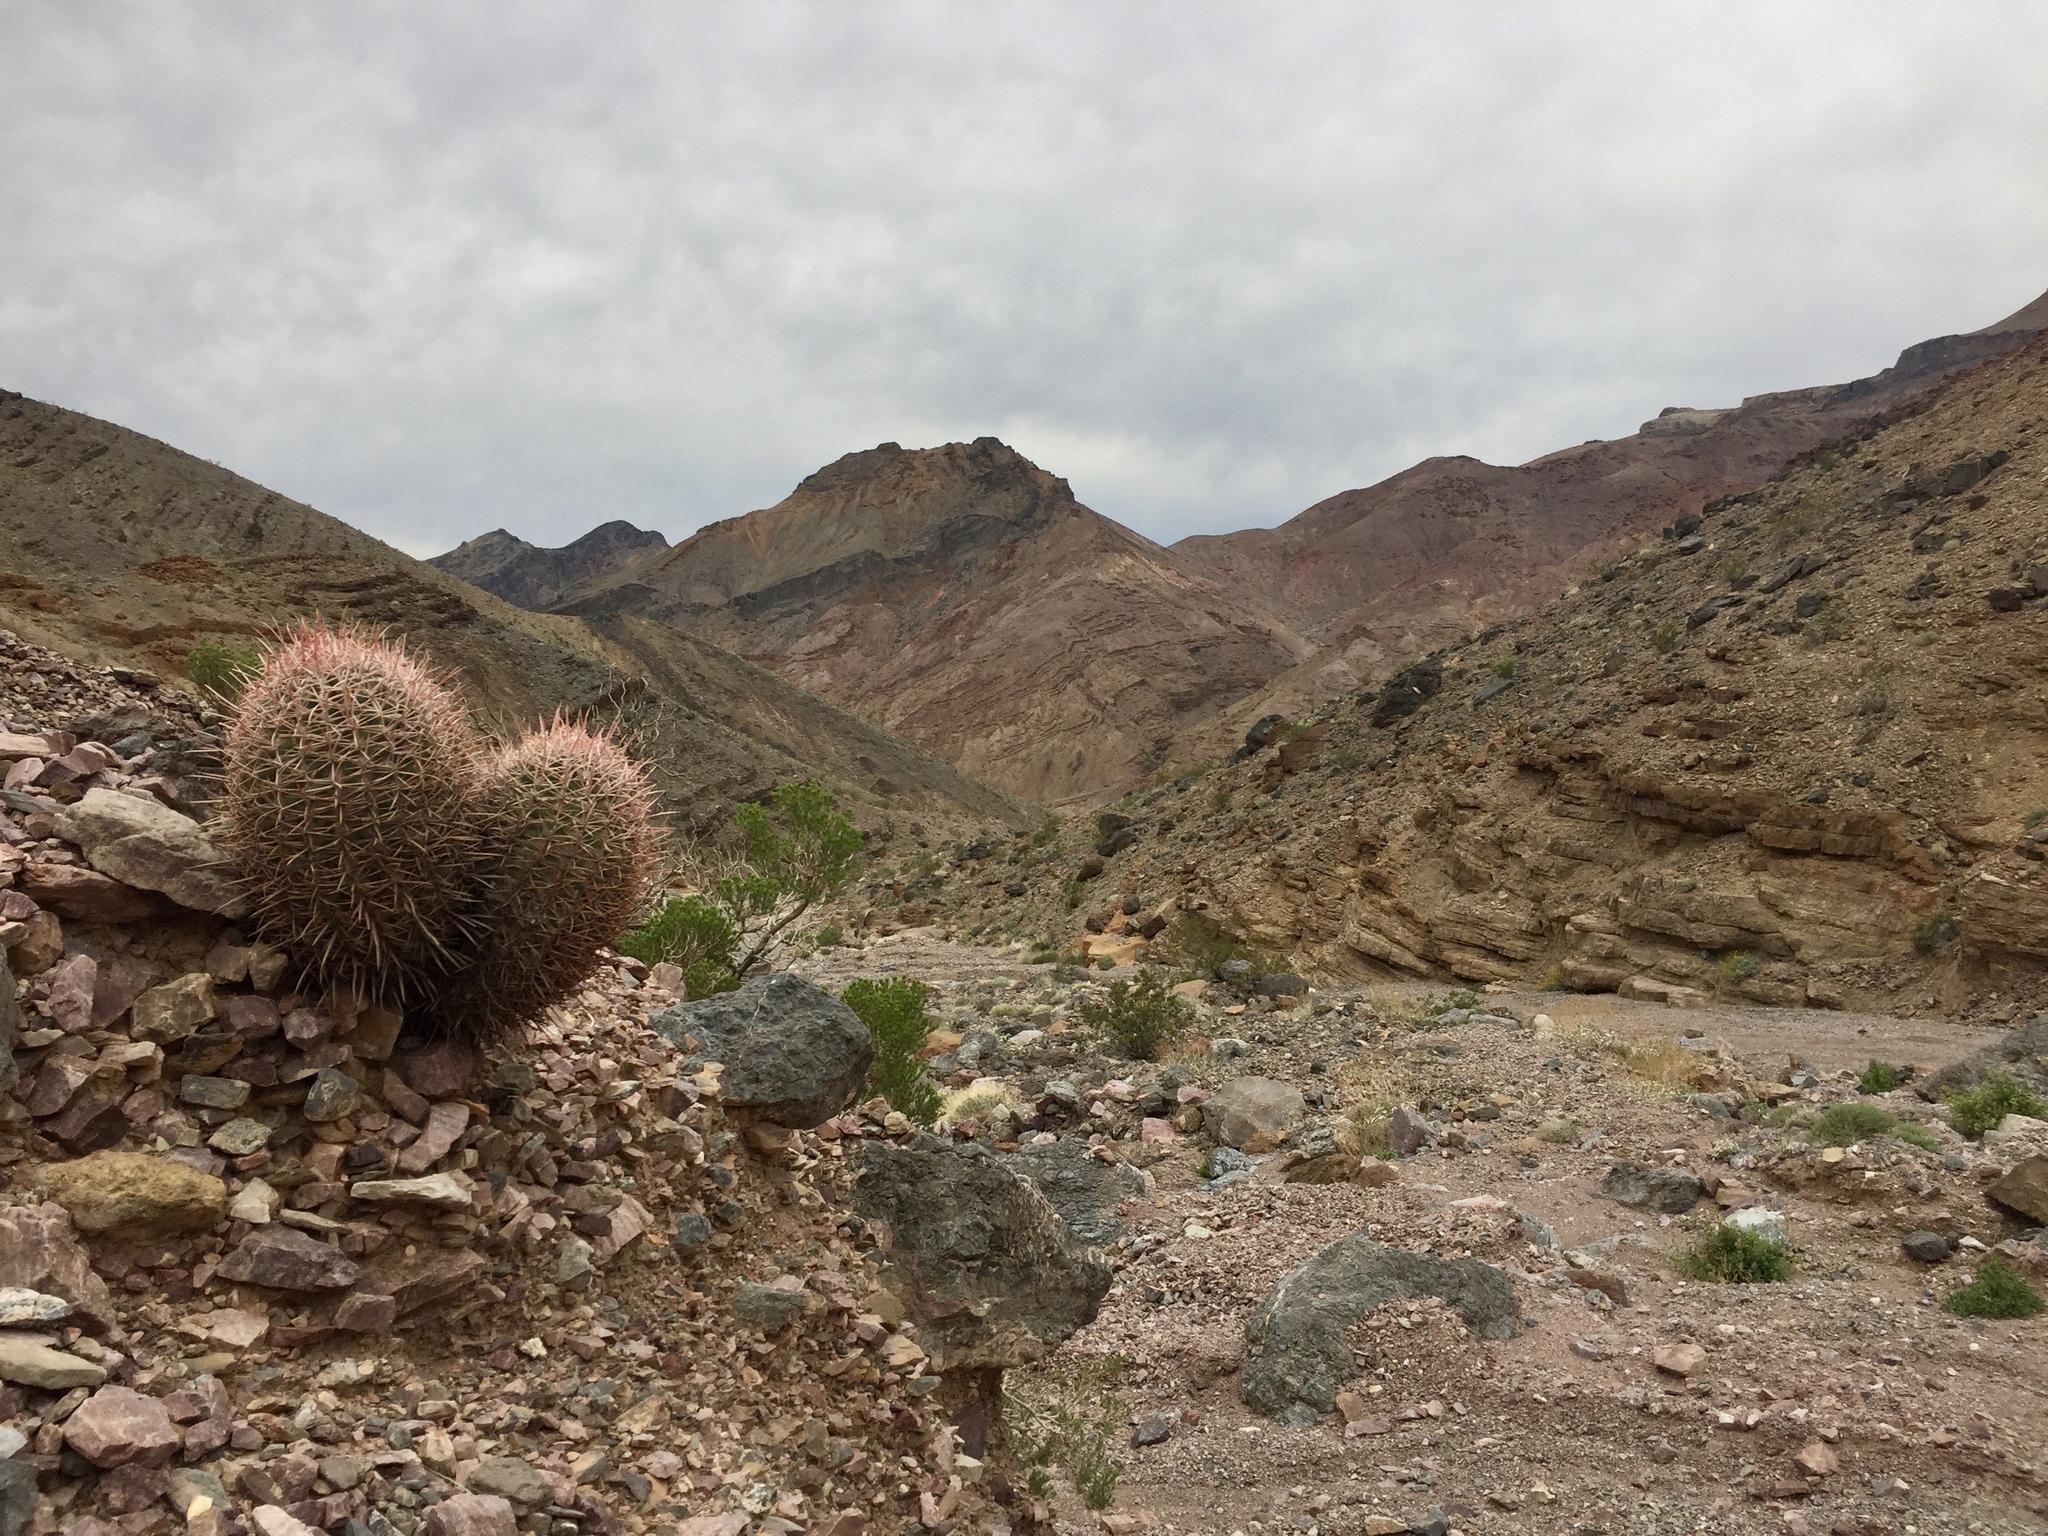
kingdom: Plantae
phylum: Tracheophyta
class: Magnoliopsida
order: Caryophyllales
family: Cactaceae
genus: Ferocactus
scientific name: Ferocactus cylindraceus
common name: California barrel cactus
